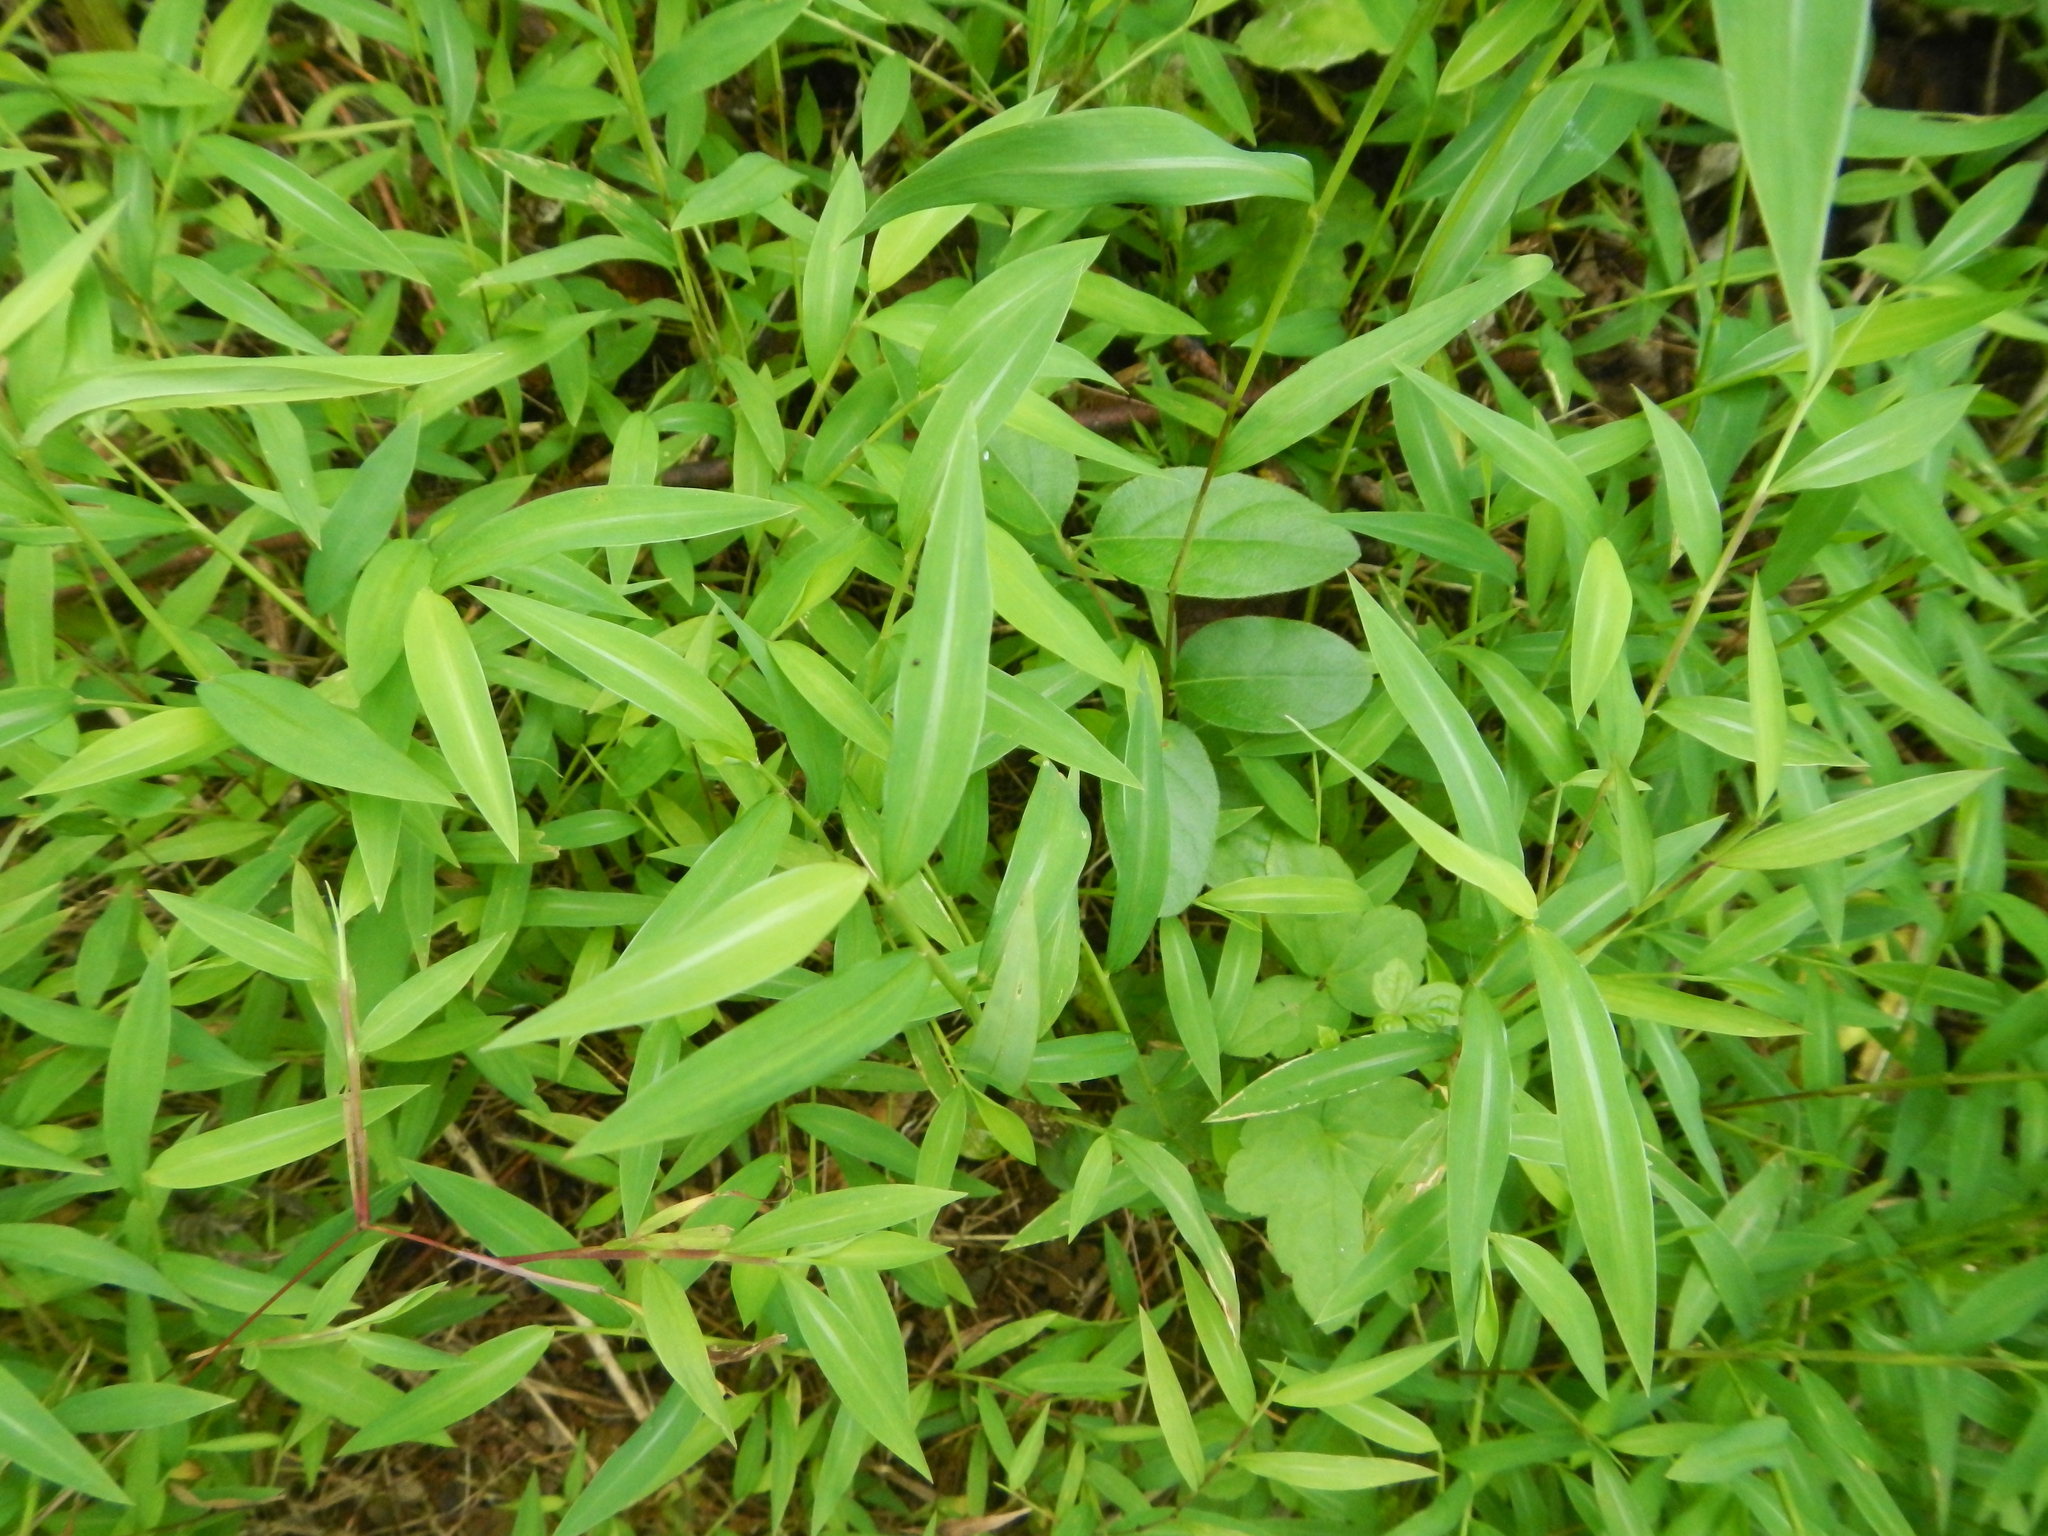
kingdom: Plantae
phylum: Tracheophyta
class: Liliopsida
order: Poales
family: Poaceae
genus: Microstegium
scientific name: Microstegium vimineum
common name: Japanese stiltgrass
